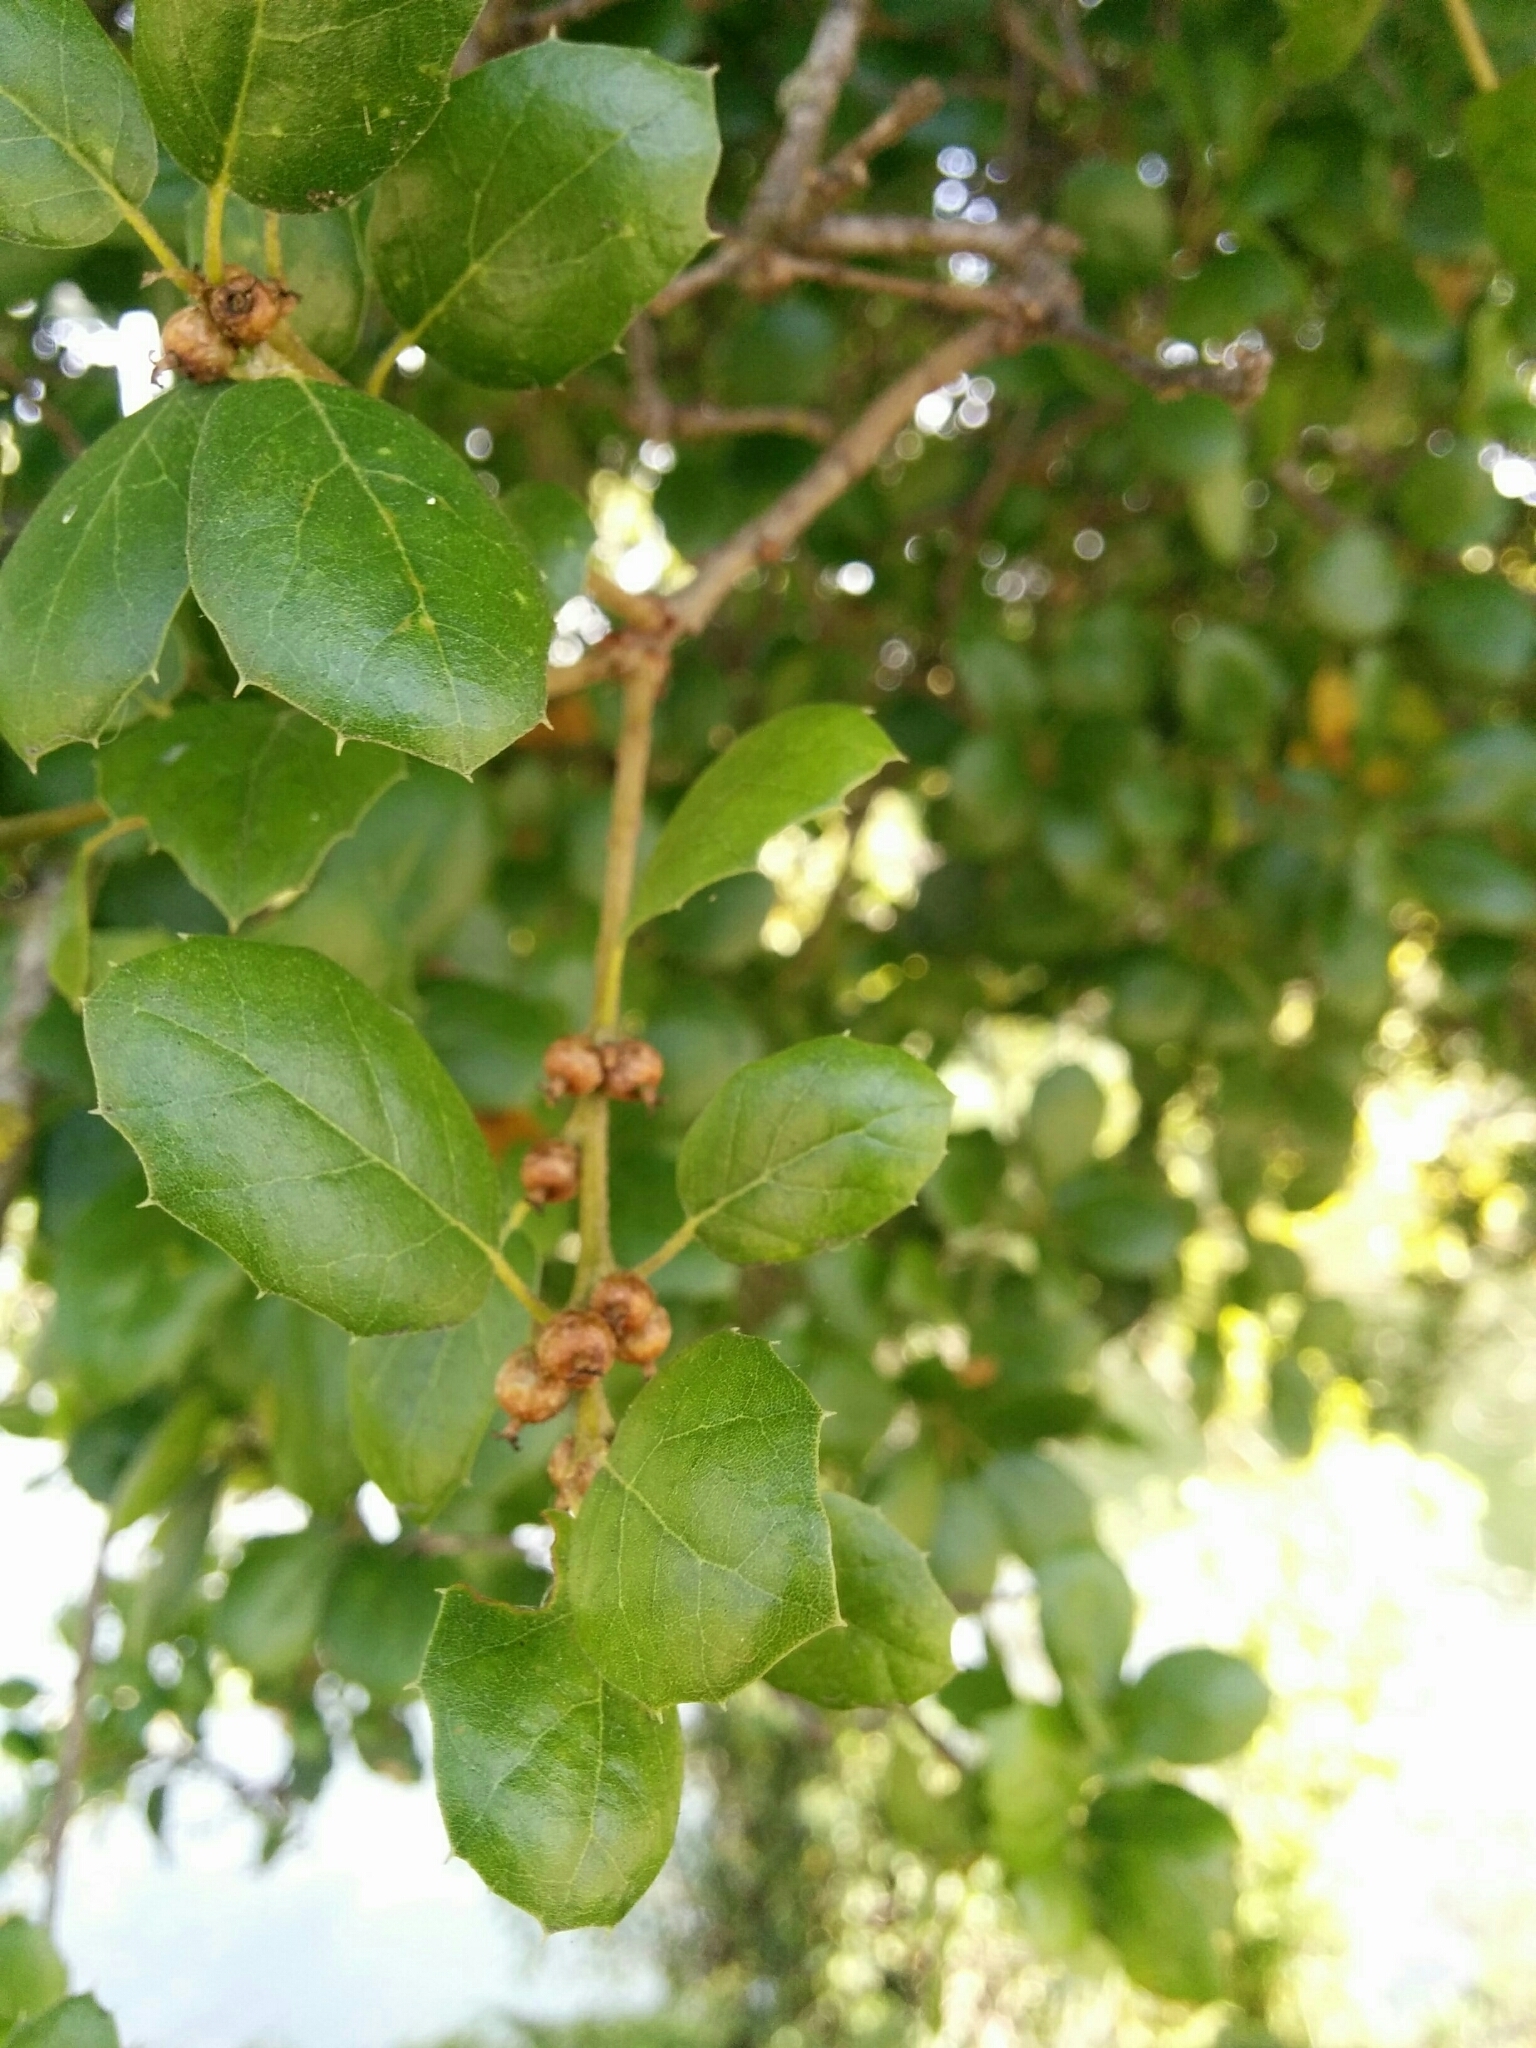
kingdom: Plantae
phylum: Tracheophyta
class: Magnoliopsida
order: Fagales
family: Fagaceae
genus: Quercus
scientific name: Quercus agrifolia
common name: California live oak
